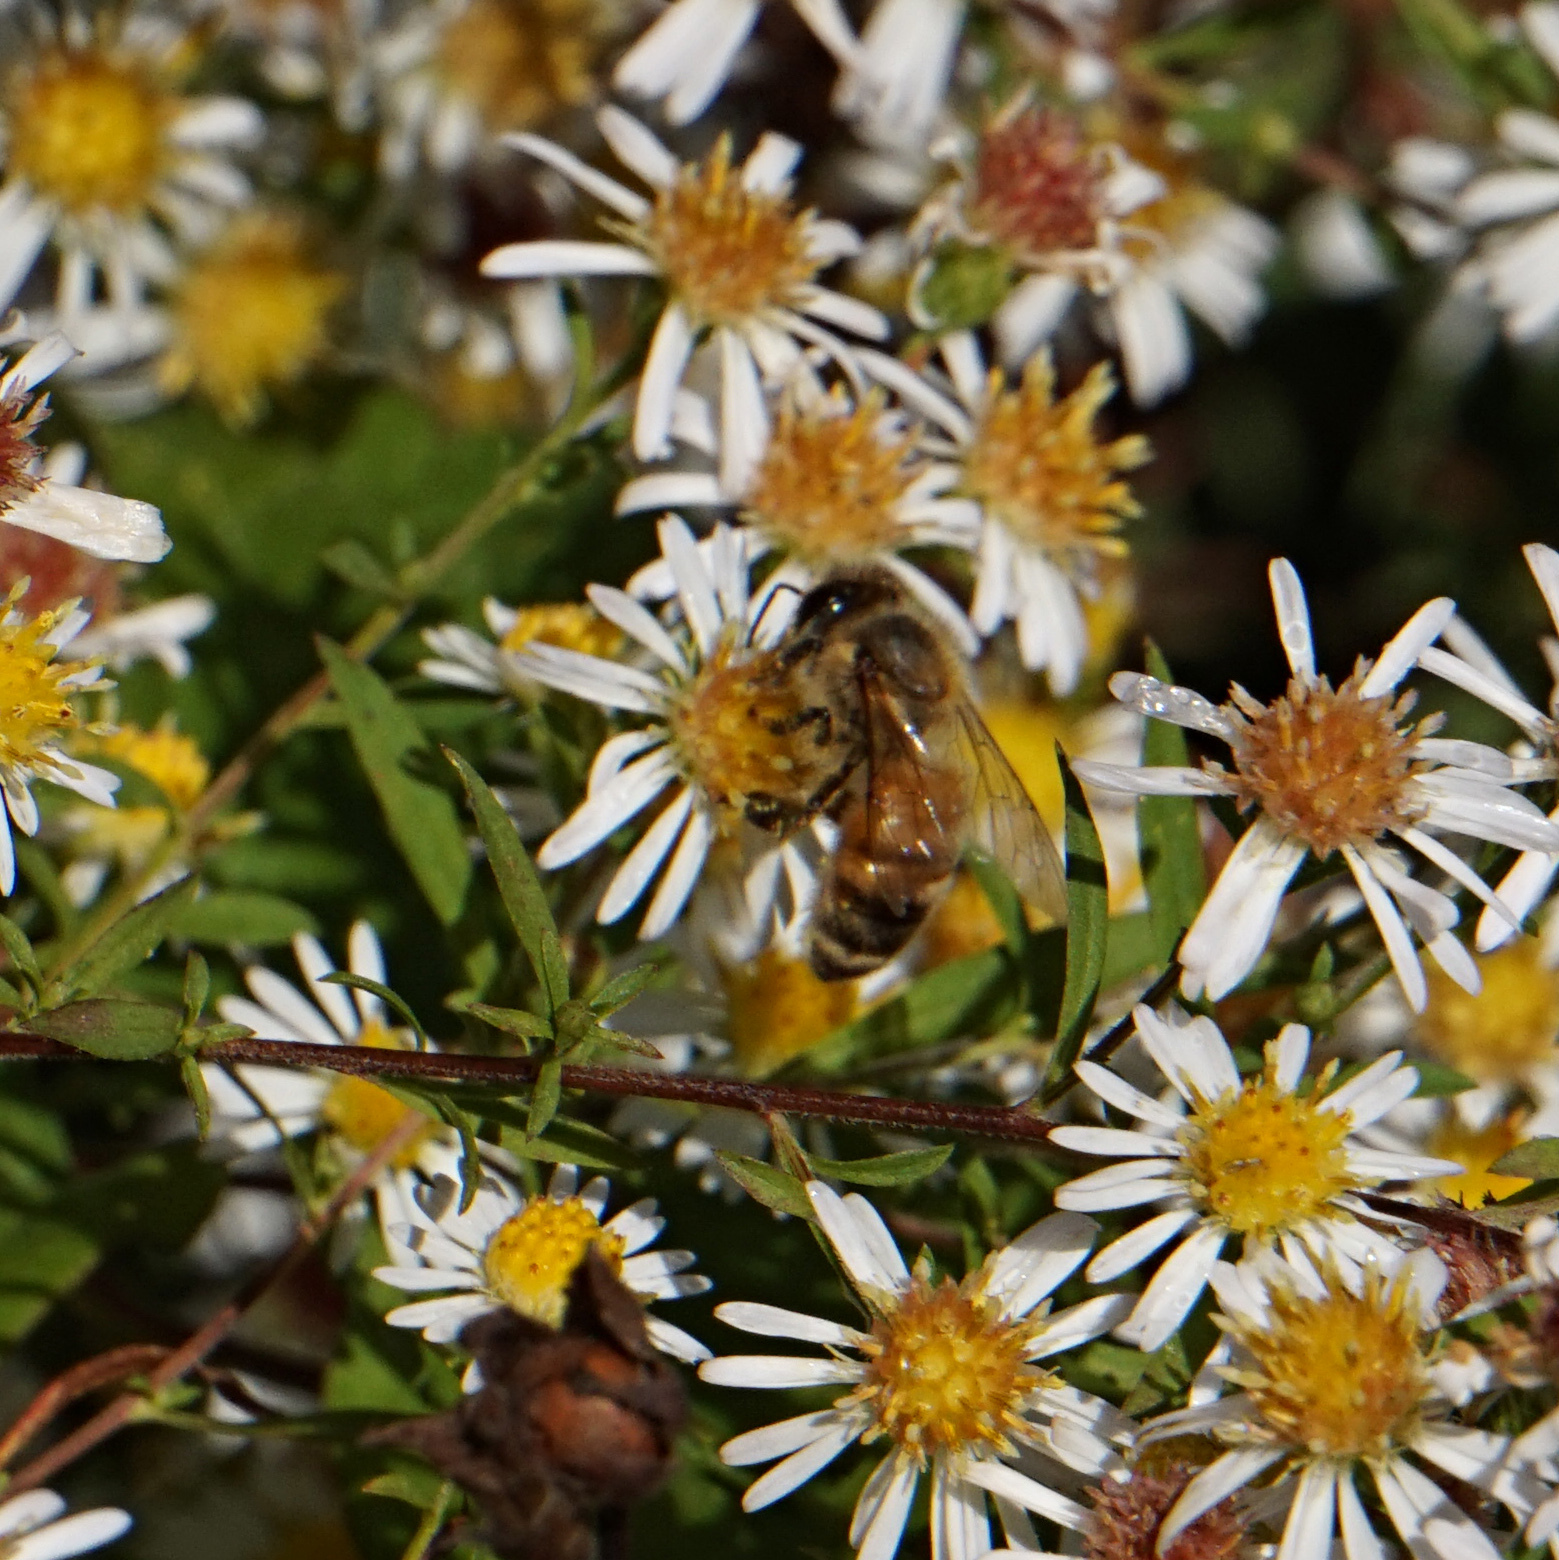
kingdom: Animalia
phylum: Arthropoda
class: Insecta
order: Hymenoptera
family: Apidae
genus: Apis
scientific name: Apis mellifera
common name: Honey bee
